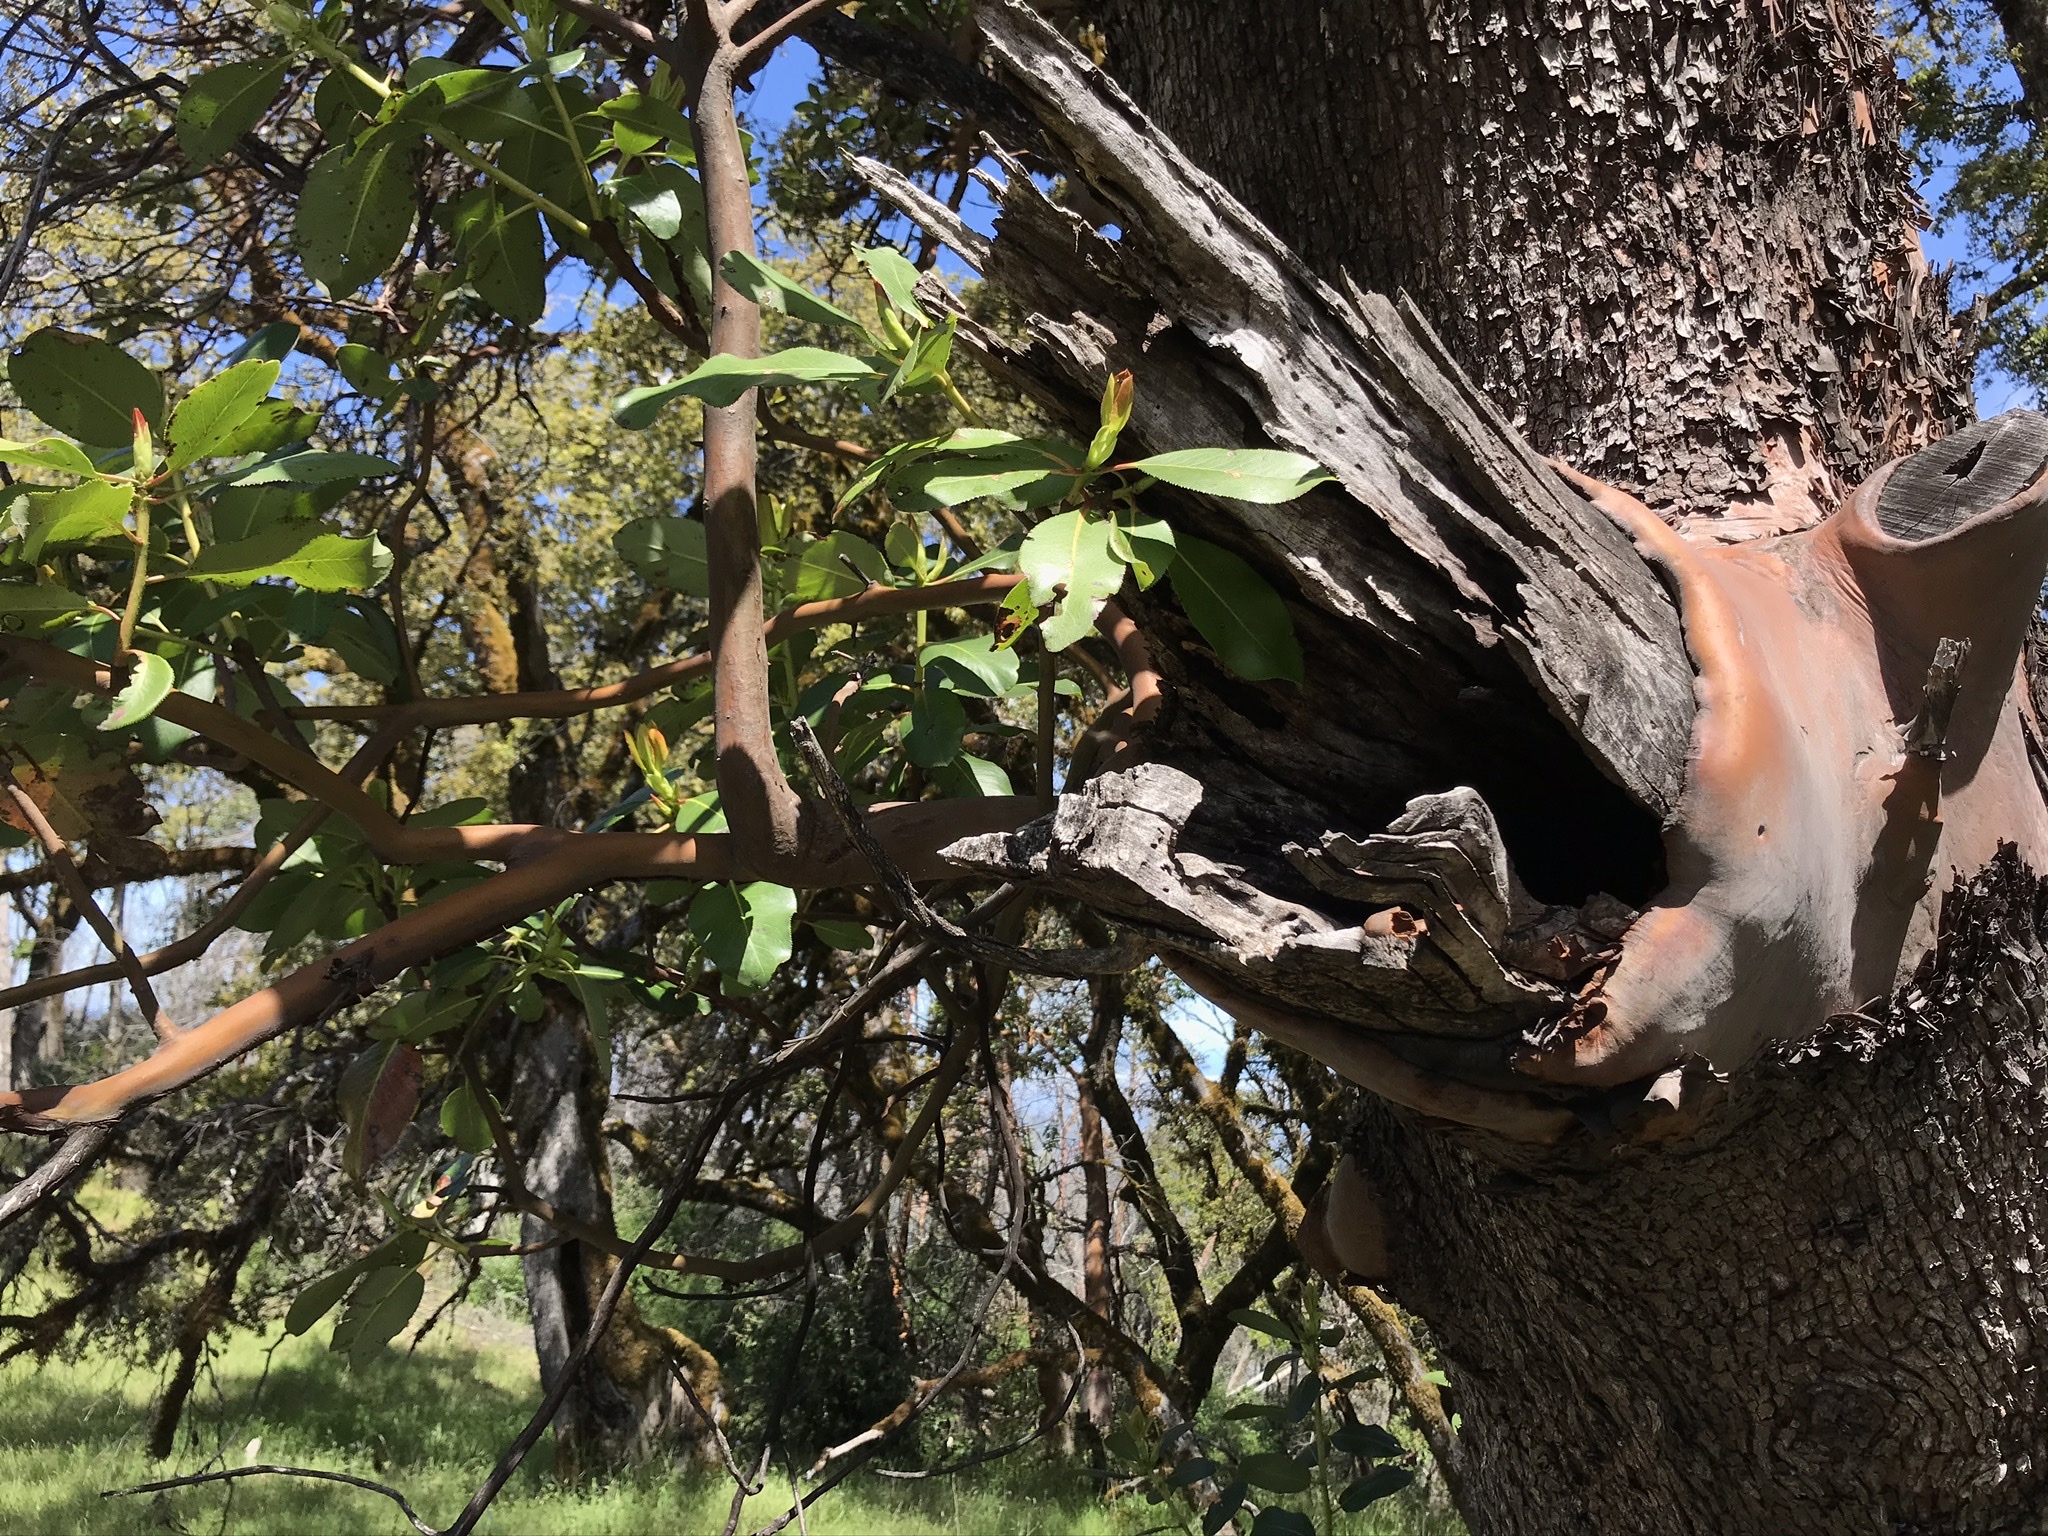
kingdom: Plantae
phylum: Tracheophyta
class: Magnoliopsida
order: Ericales
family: Ericaceae
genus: Arbutus
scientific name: Arbutus menziesii
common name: Pacific madrone
